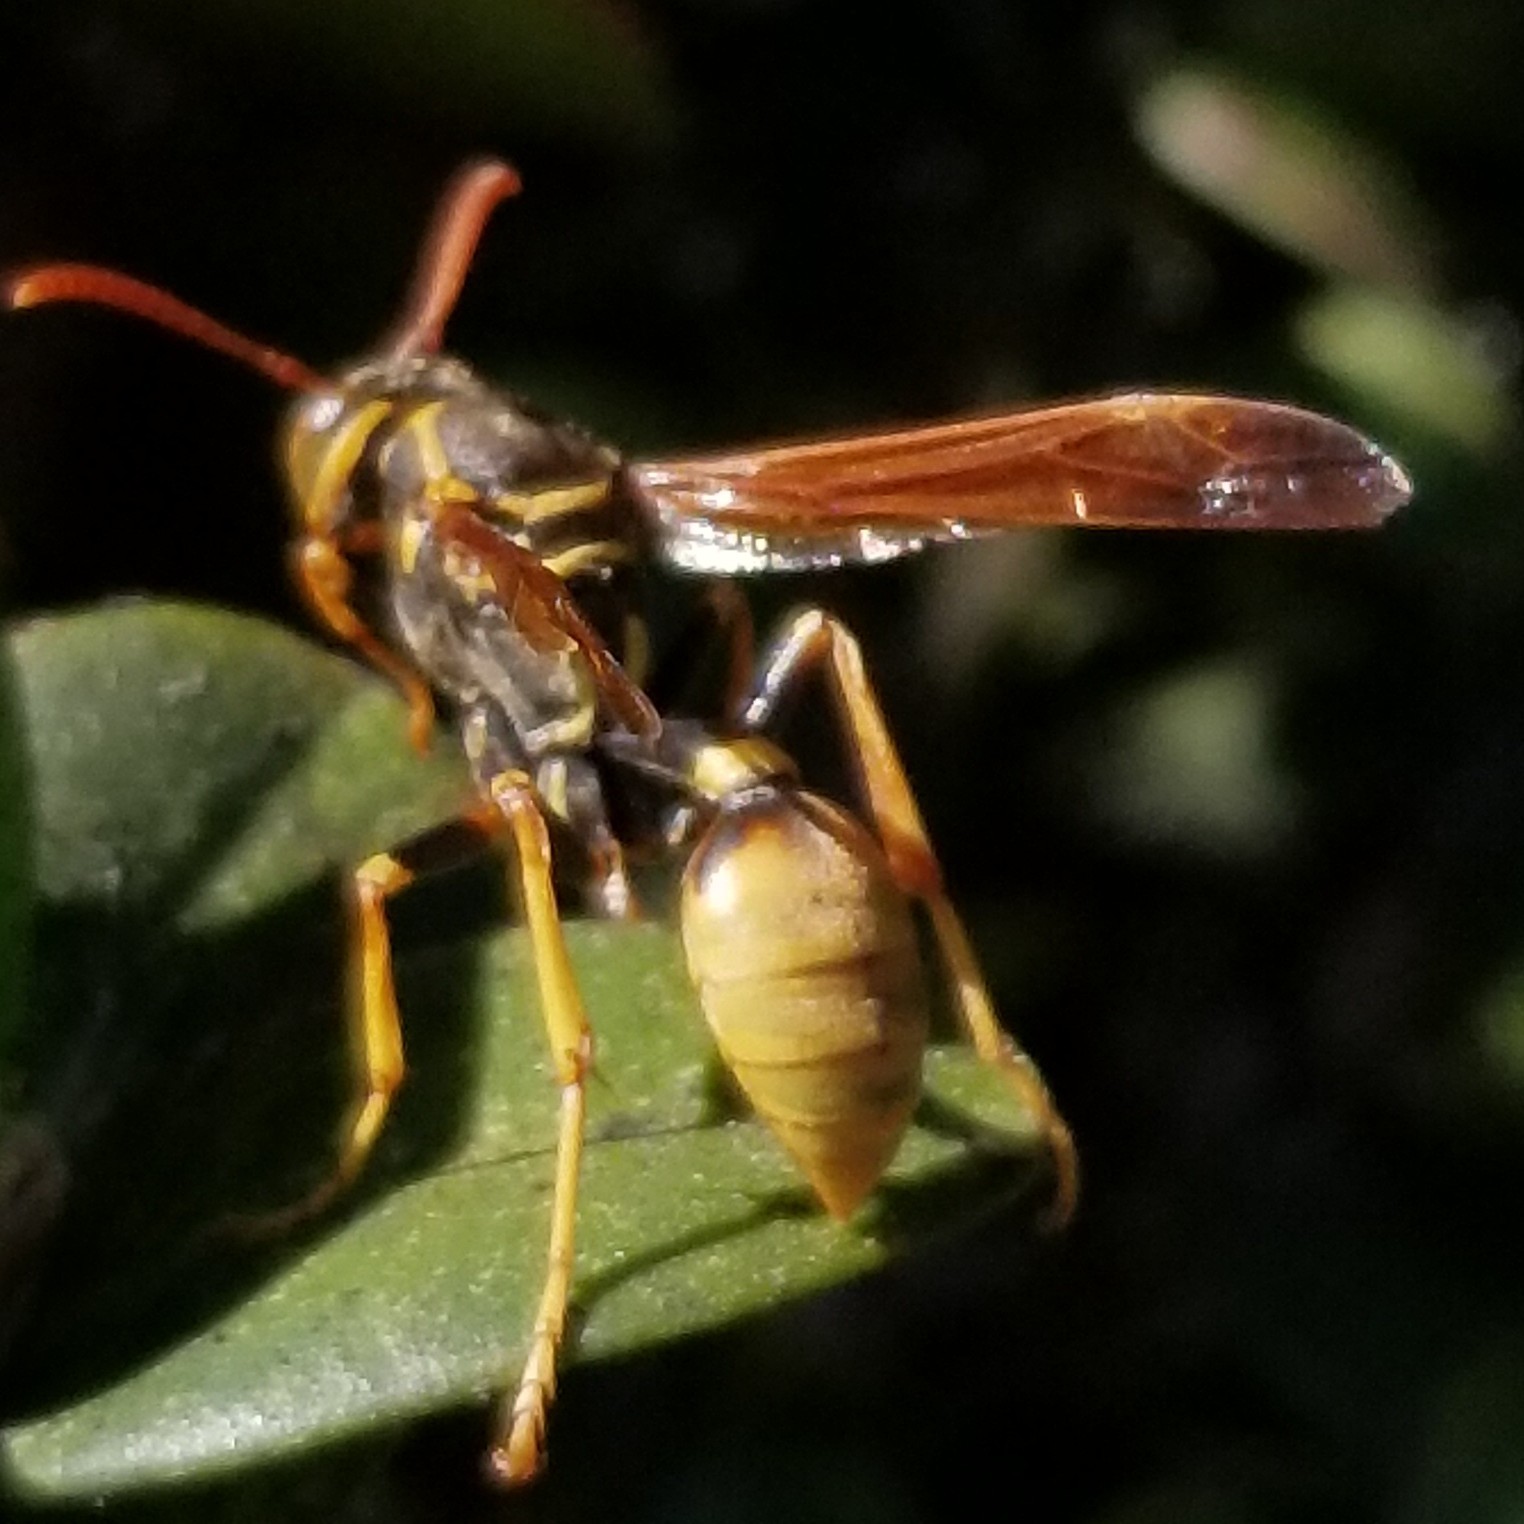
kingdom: Animalia
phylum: Arthropoda
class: Insecta
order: Hymenoptera
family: Vespidae
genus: Mischocyttarus
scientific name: Mischocyttarus flavitarsis
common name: Wasp
